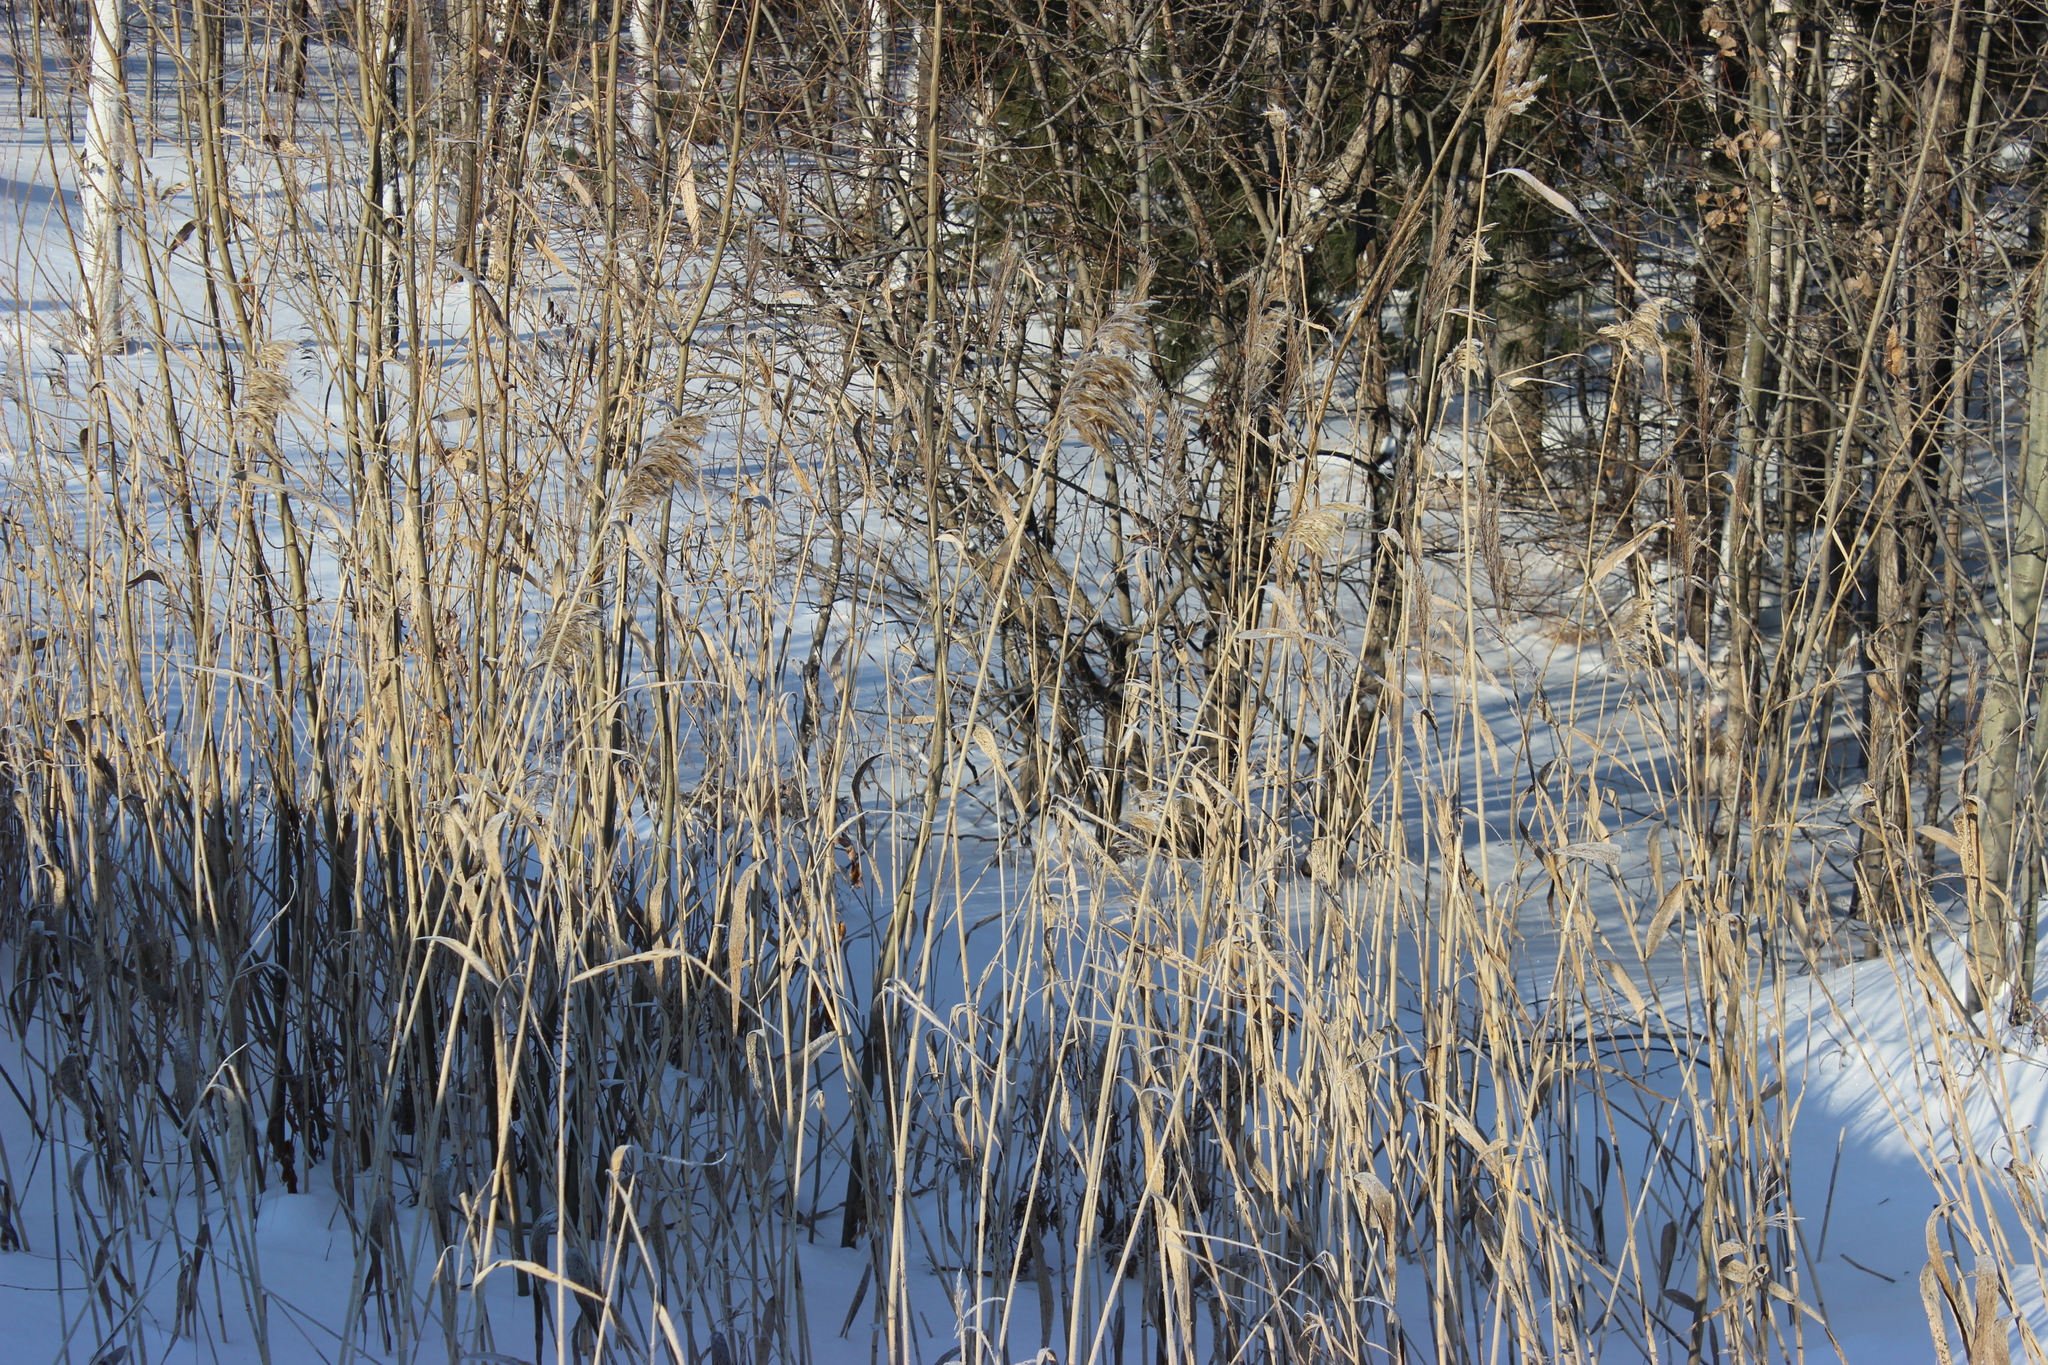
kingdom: Plantae
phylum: Tracheophyta
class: Liliopsida
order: Poales
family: Poaceae
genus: Phragmites
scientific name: Phragmites australis
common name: Common reed
